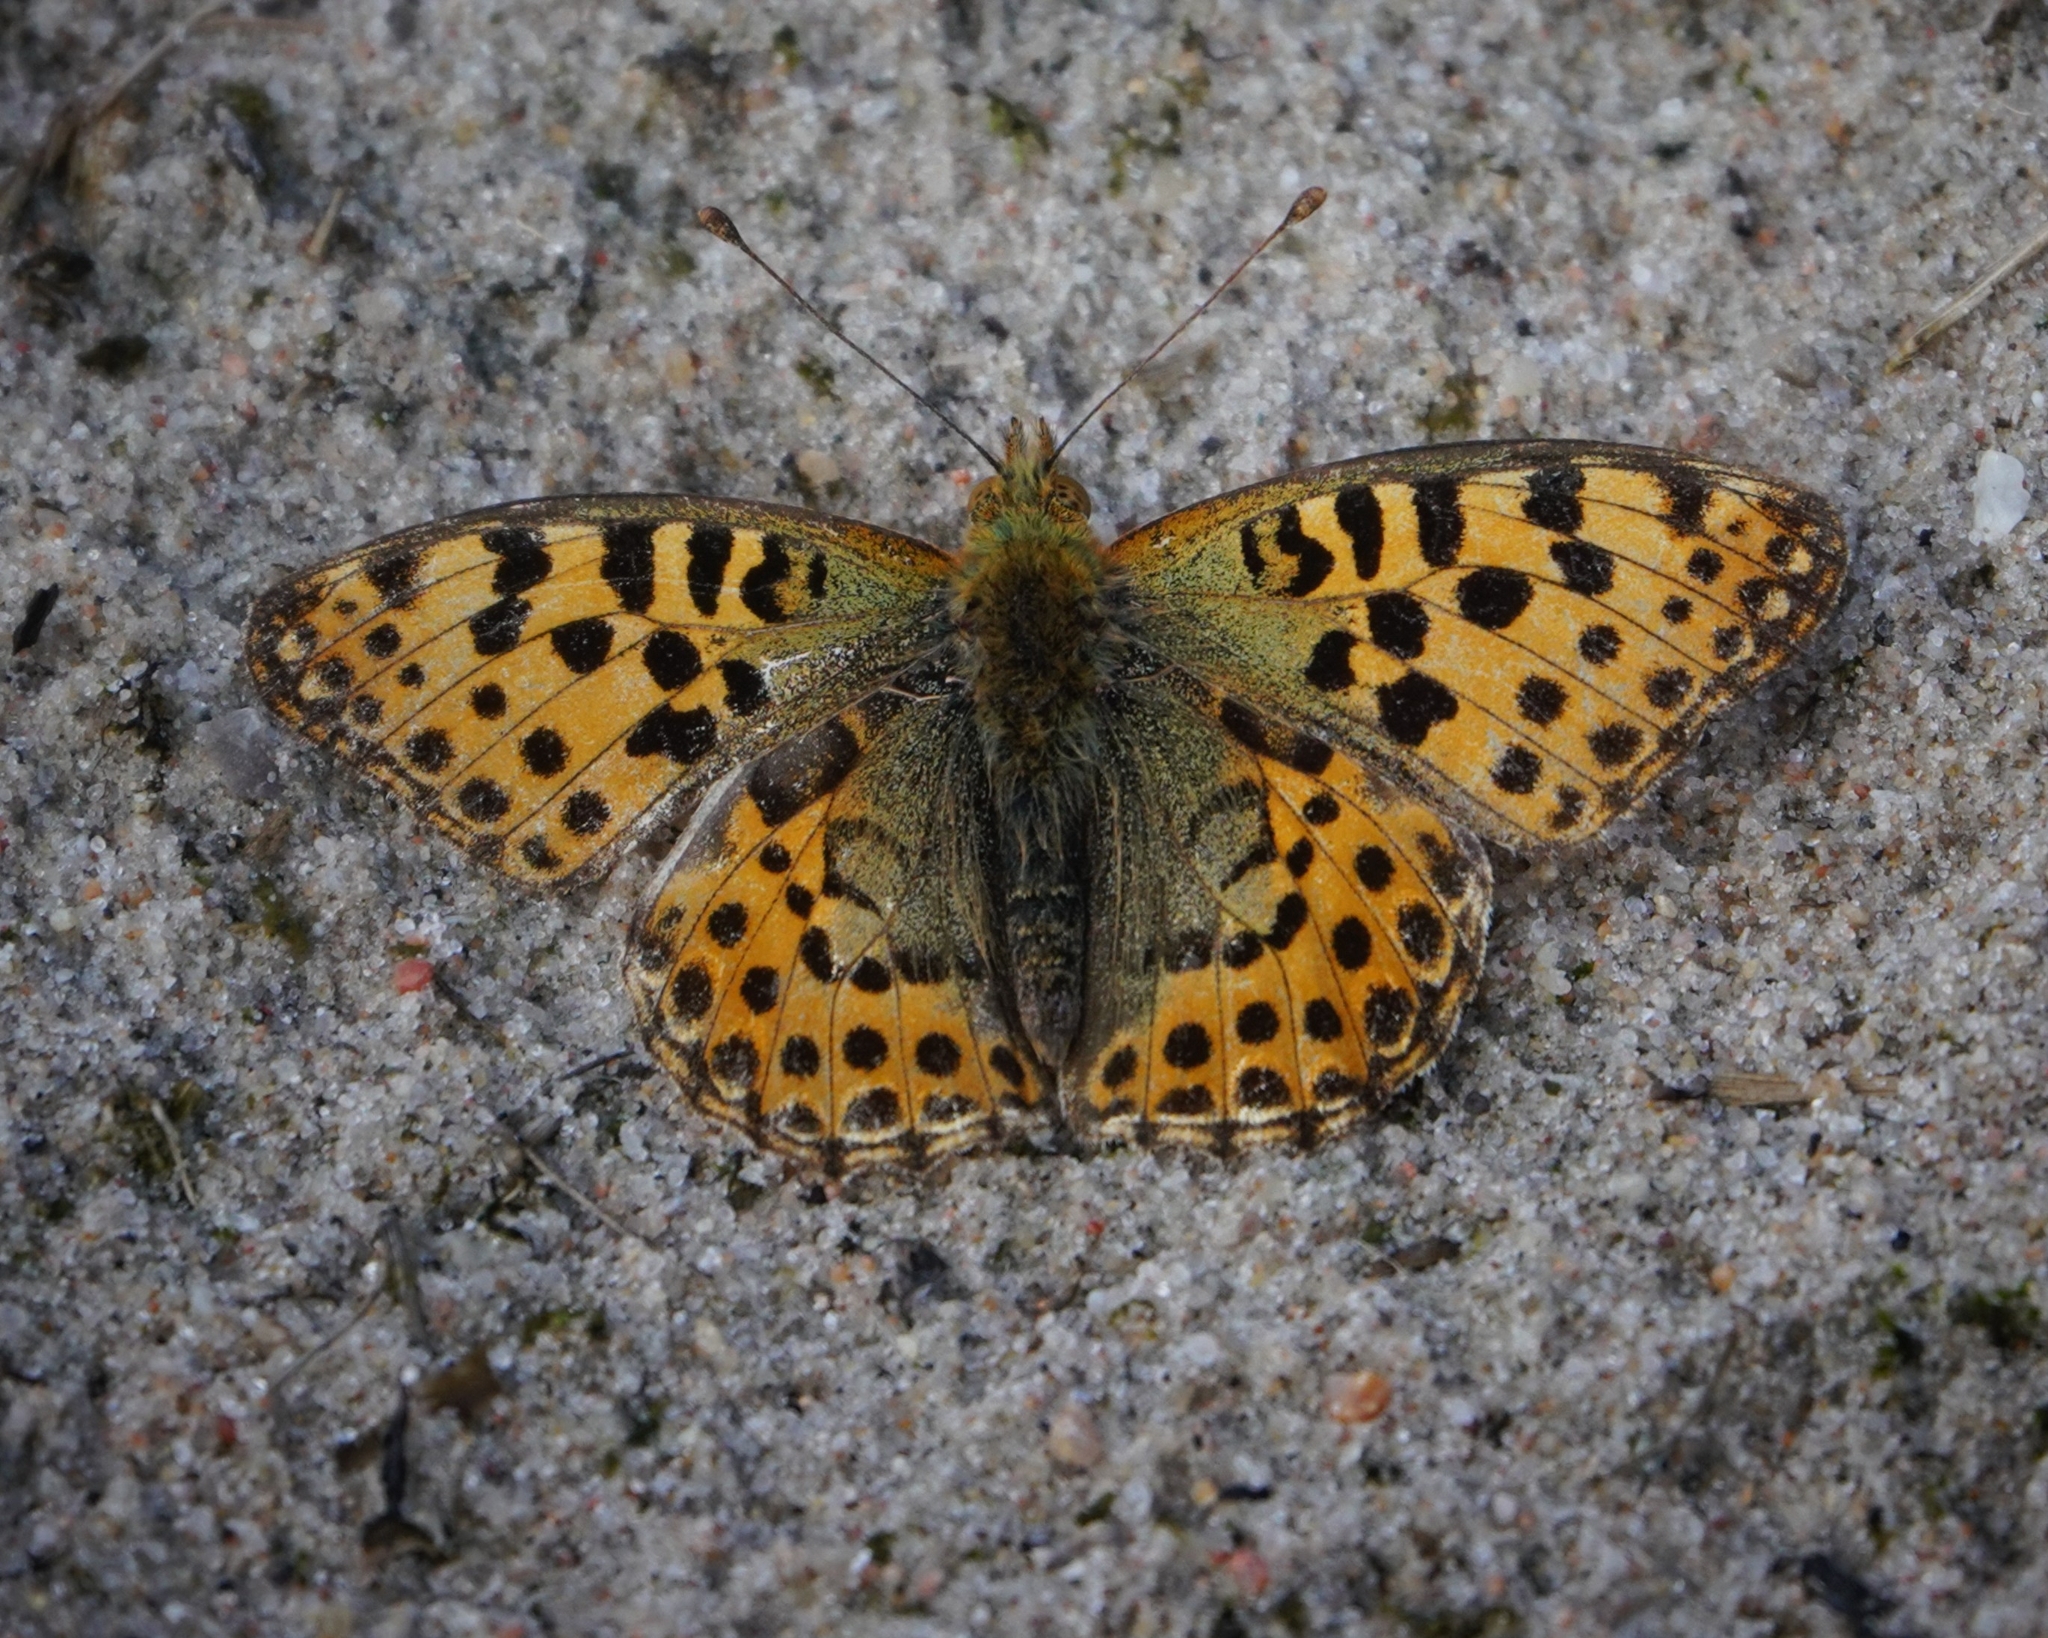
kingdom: Animalia
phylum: Arthropoda
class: Insecta
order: Lepidoptera
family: Nymphalidae
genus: Issoria
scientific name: Issoria lathonia
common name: Queen of spain fritillary
